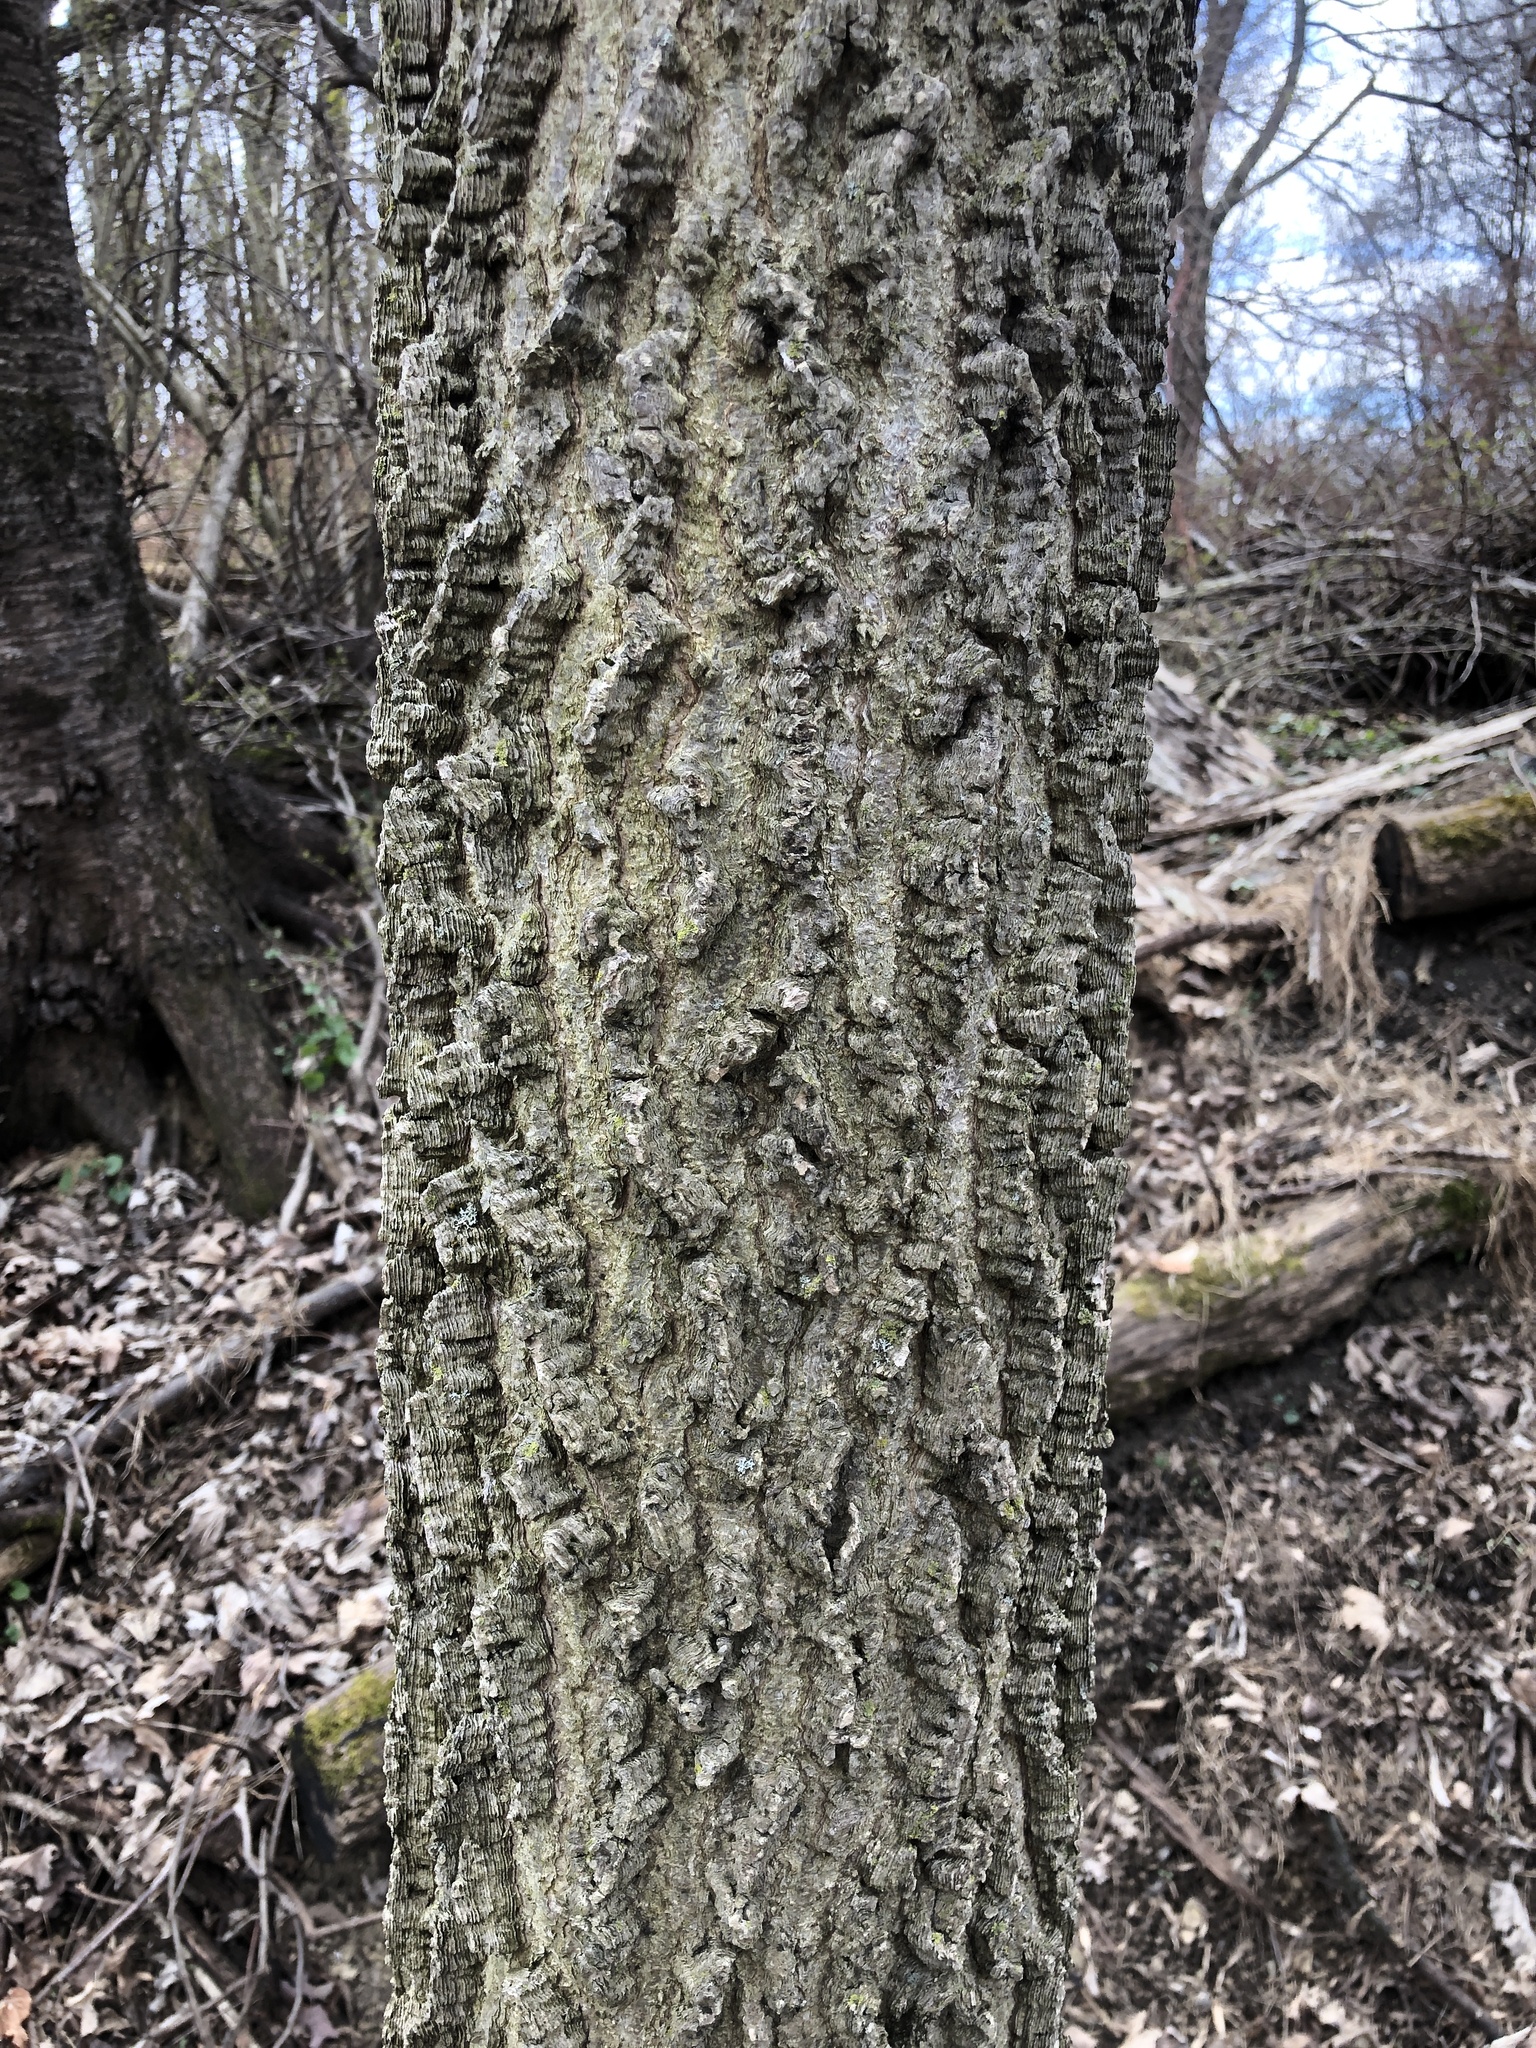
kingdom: Plantae
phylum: Tracheophyta
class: Magnoliopsida
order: Rosales
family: Cannabaceae
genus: Celtis
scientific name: Celtis occidentalis
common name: Common hackberry
